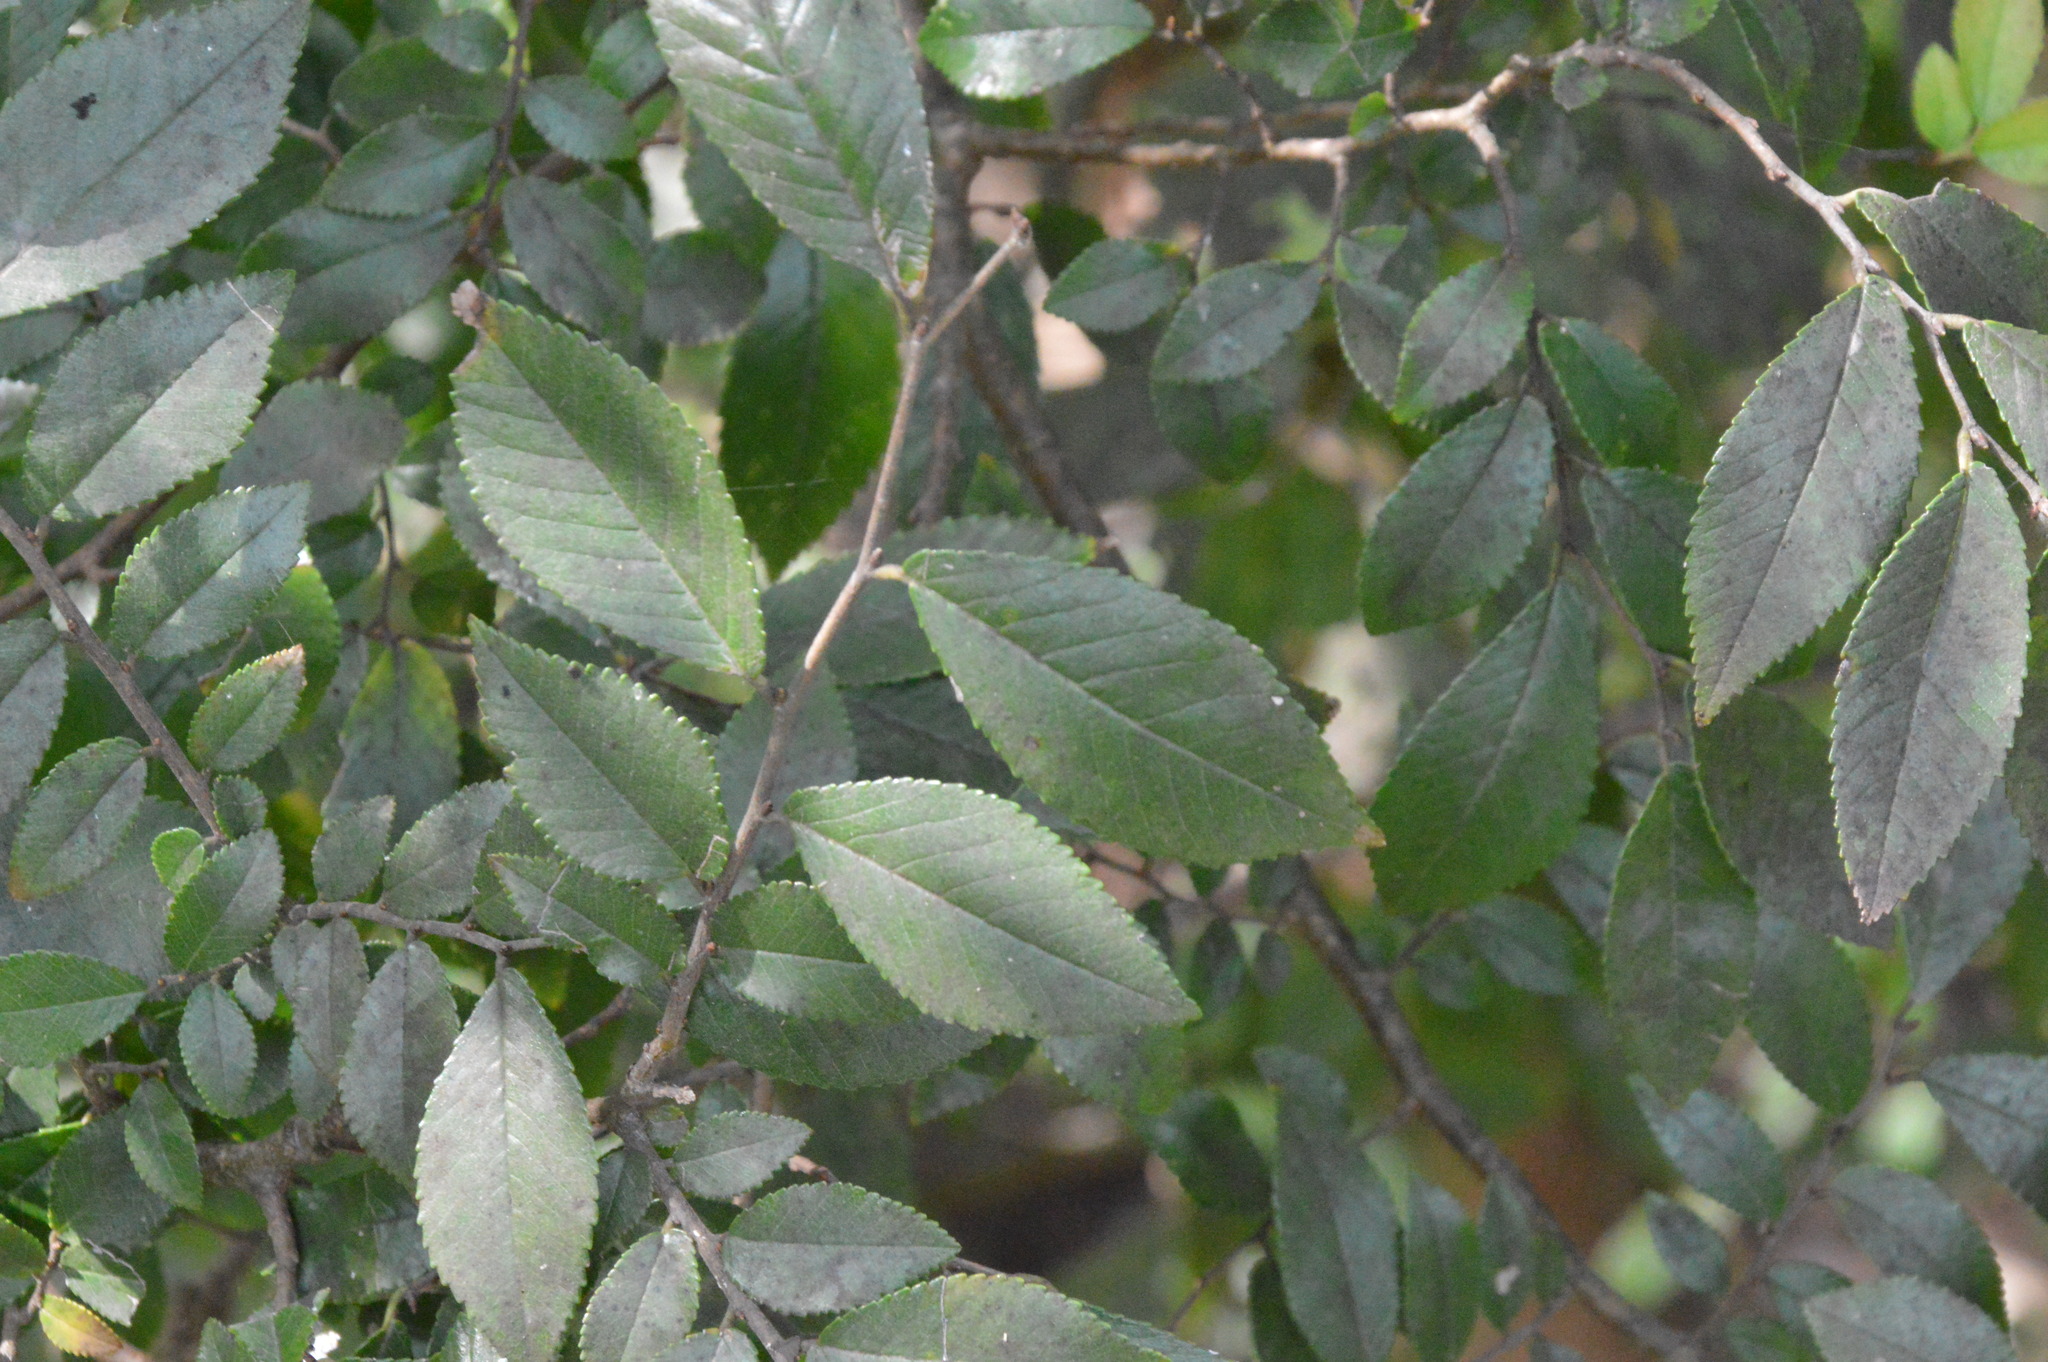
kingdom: Plantae
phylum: Tracheophyta
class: Magnoliopsida
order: Rosales
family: Ulmaceae
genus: Ulmus
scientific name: Ulmus parvifolia
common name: Chinese elm
